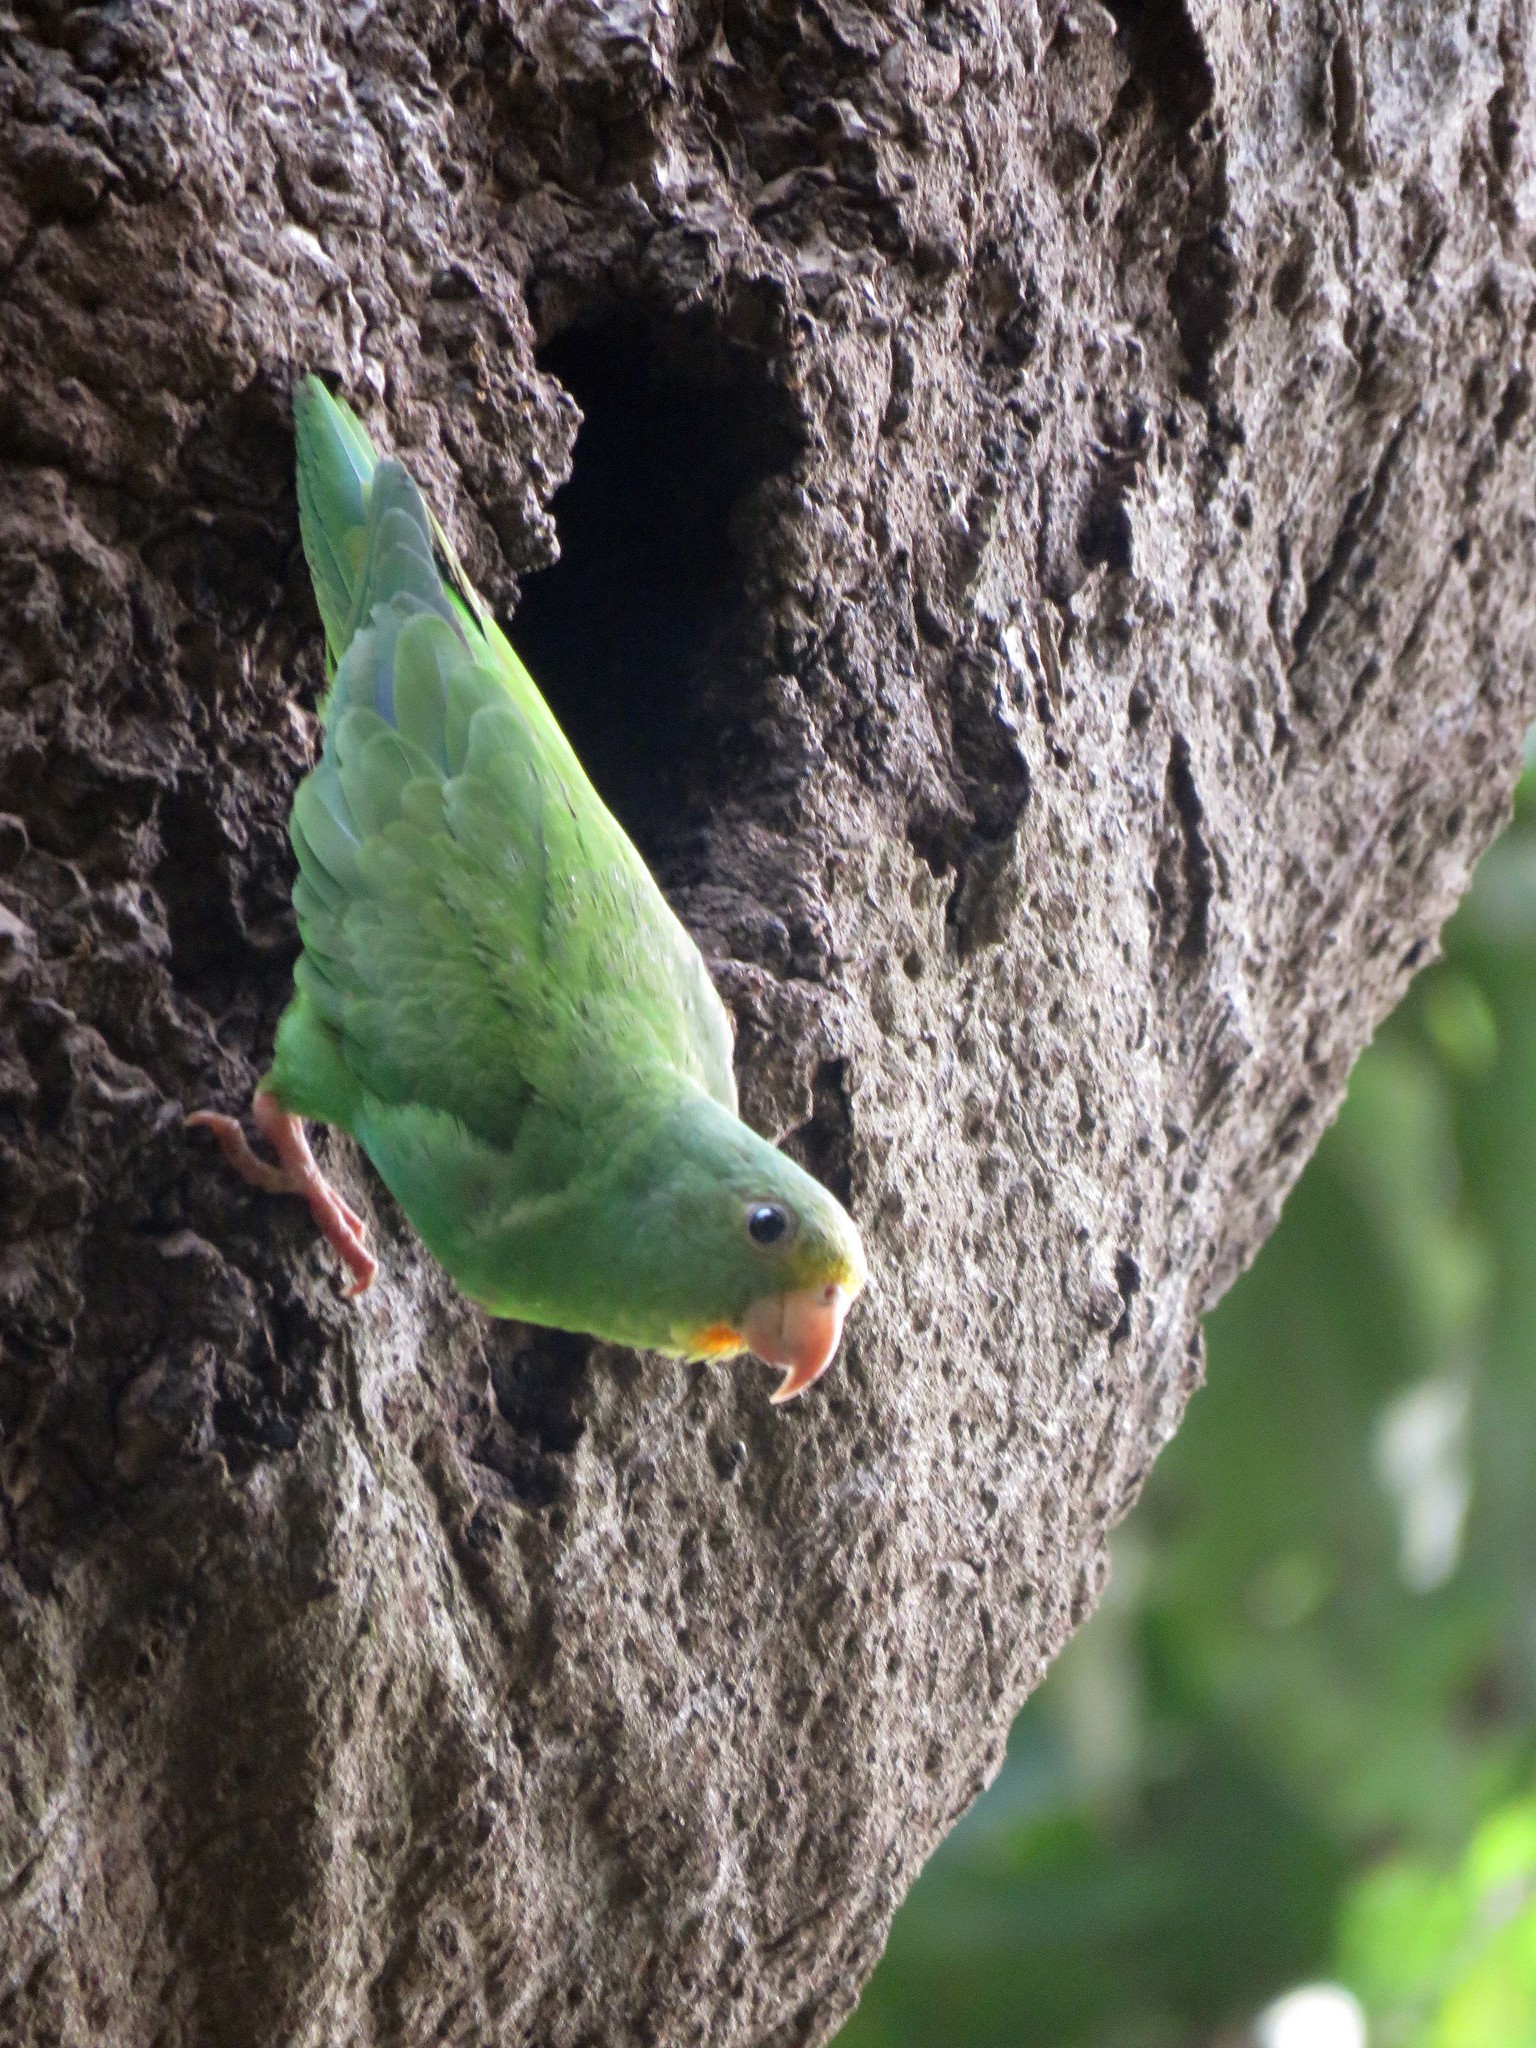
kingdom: Animalia
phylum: Chordata
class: Aves
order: Psittaciformes
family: Psittacidae
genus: Brotogeris
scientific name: Brotogeris cyanoptera
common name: Cobalt-winged parakeet
